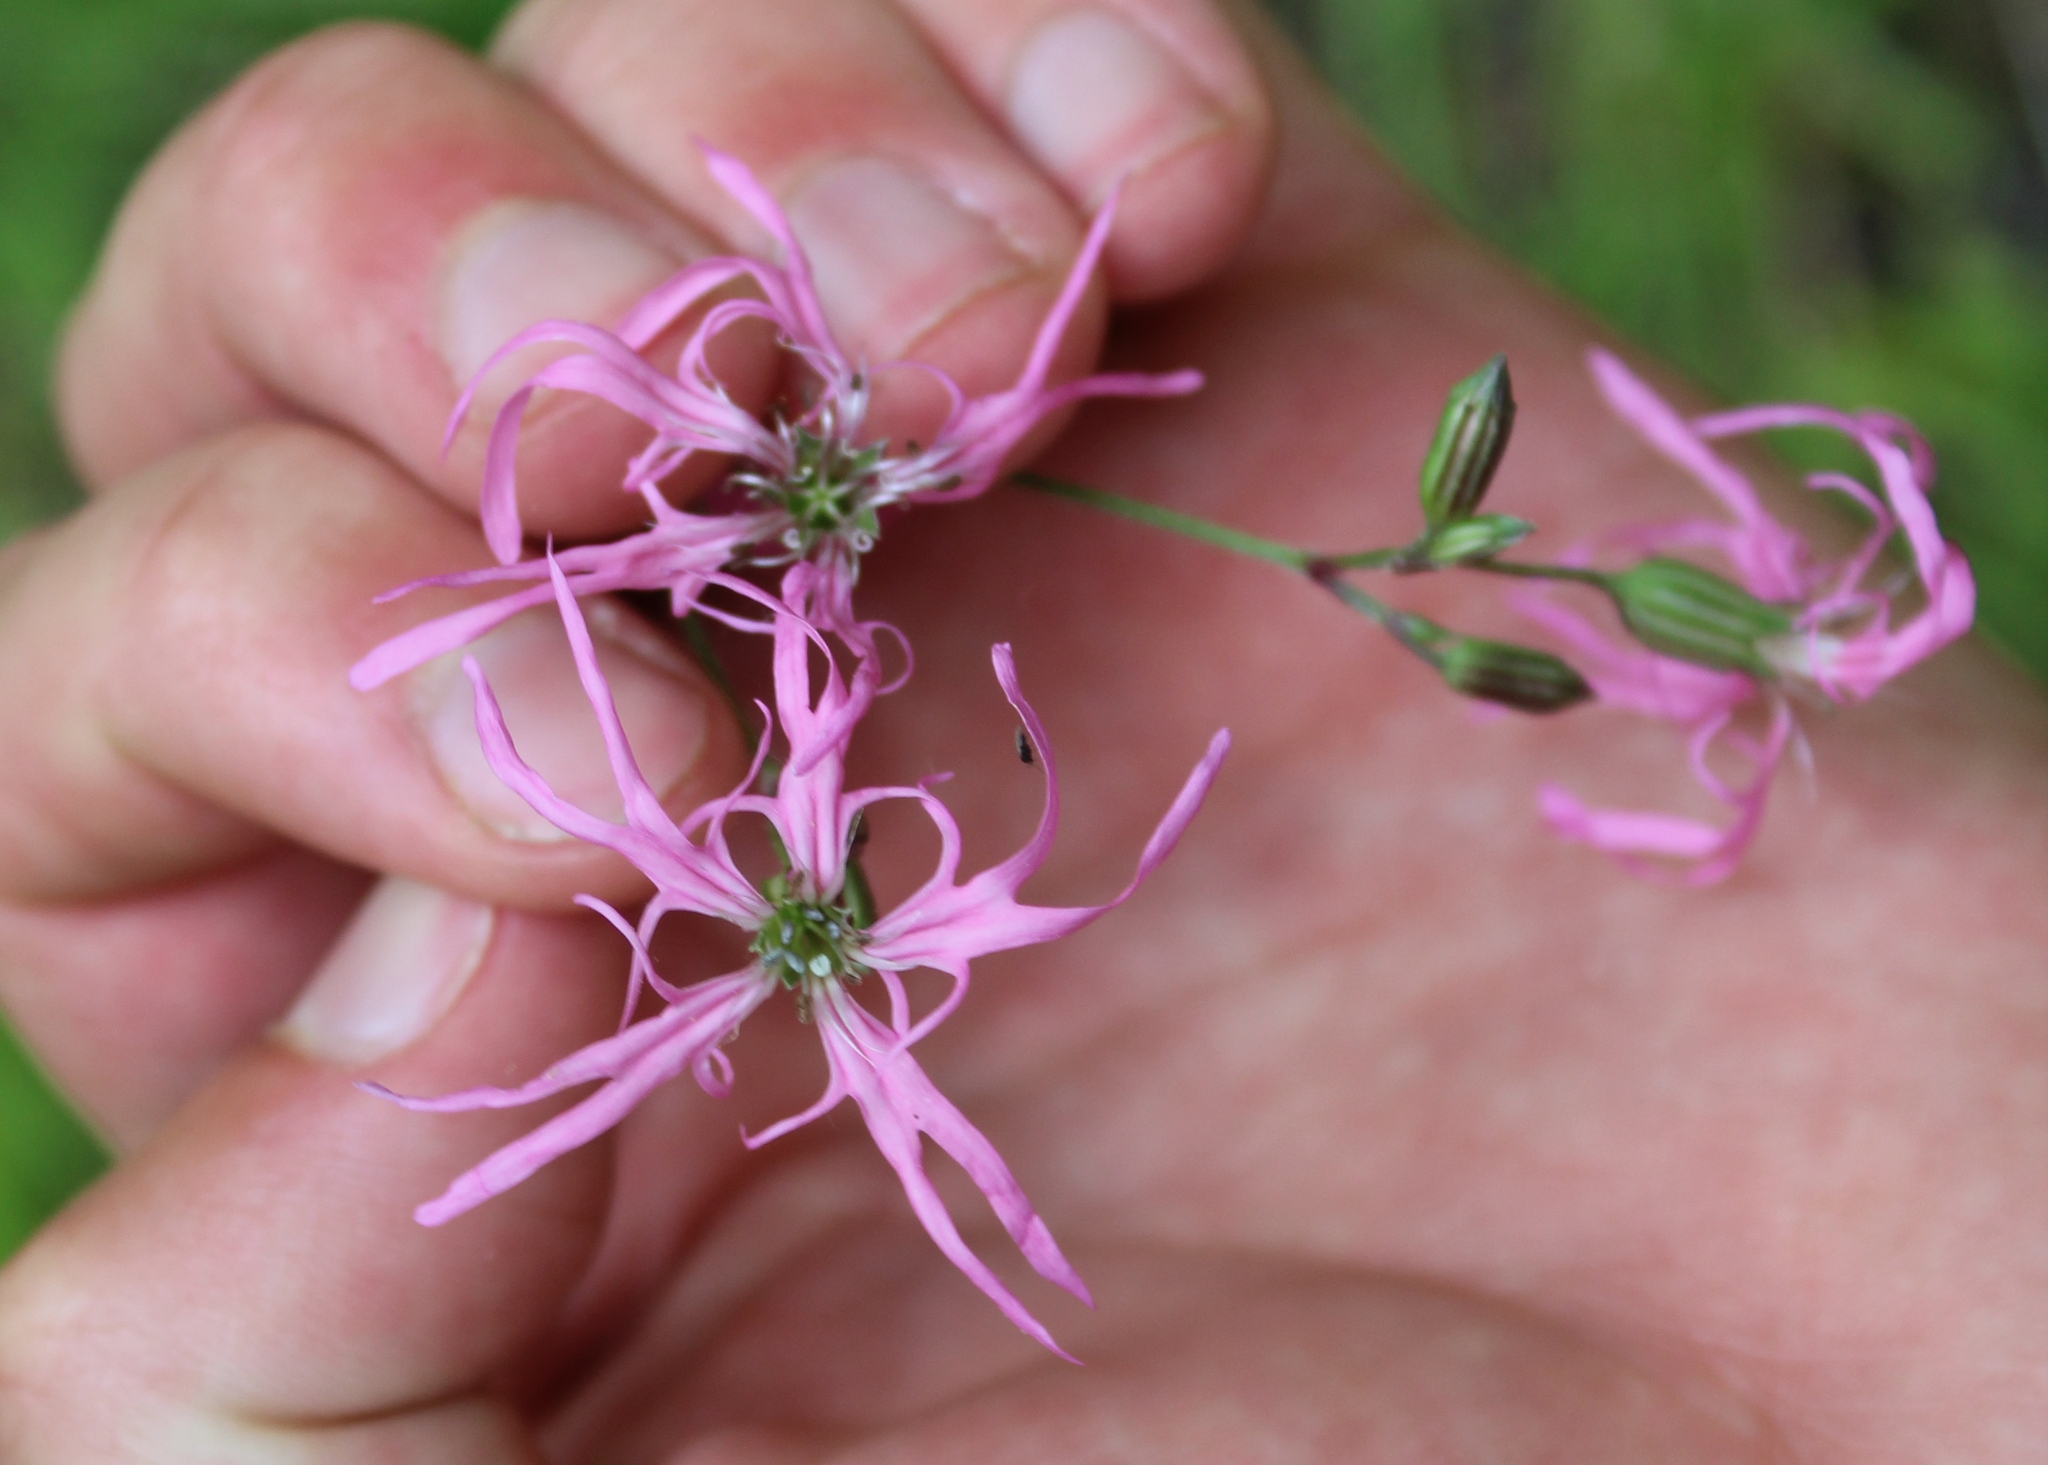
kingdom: Plantae
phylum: Tracheophyta
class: Magnoliopsida
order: Caryophyllales
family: Caryophyllaceae
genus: Silene
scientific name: Silene flos-cuculi
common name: Ragged-robin
